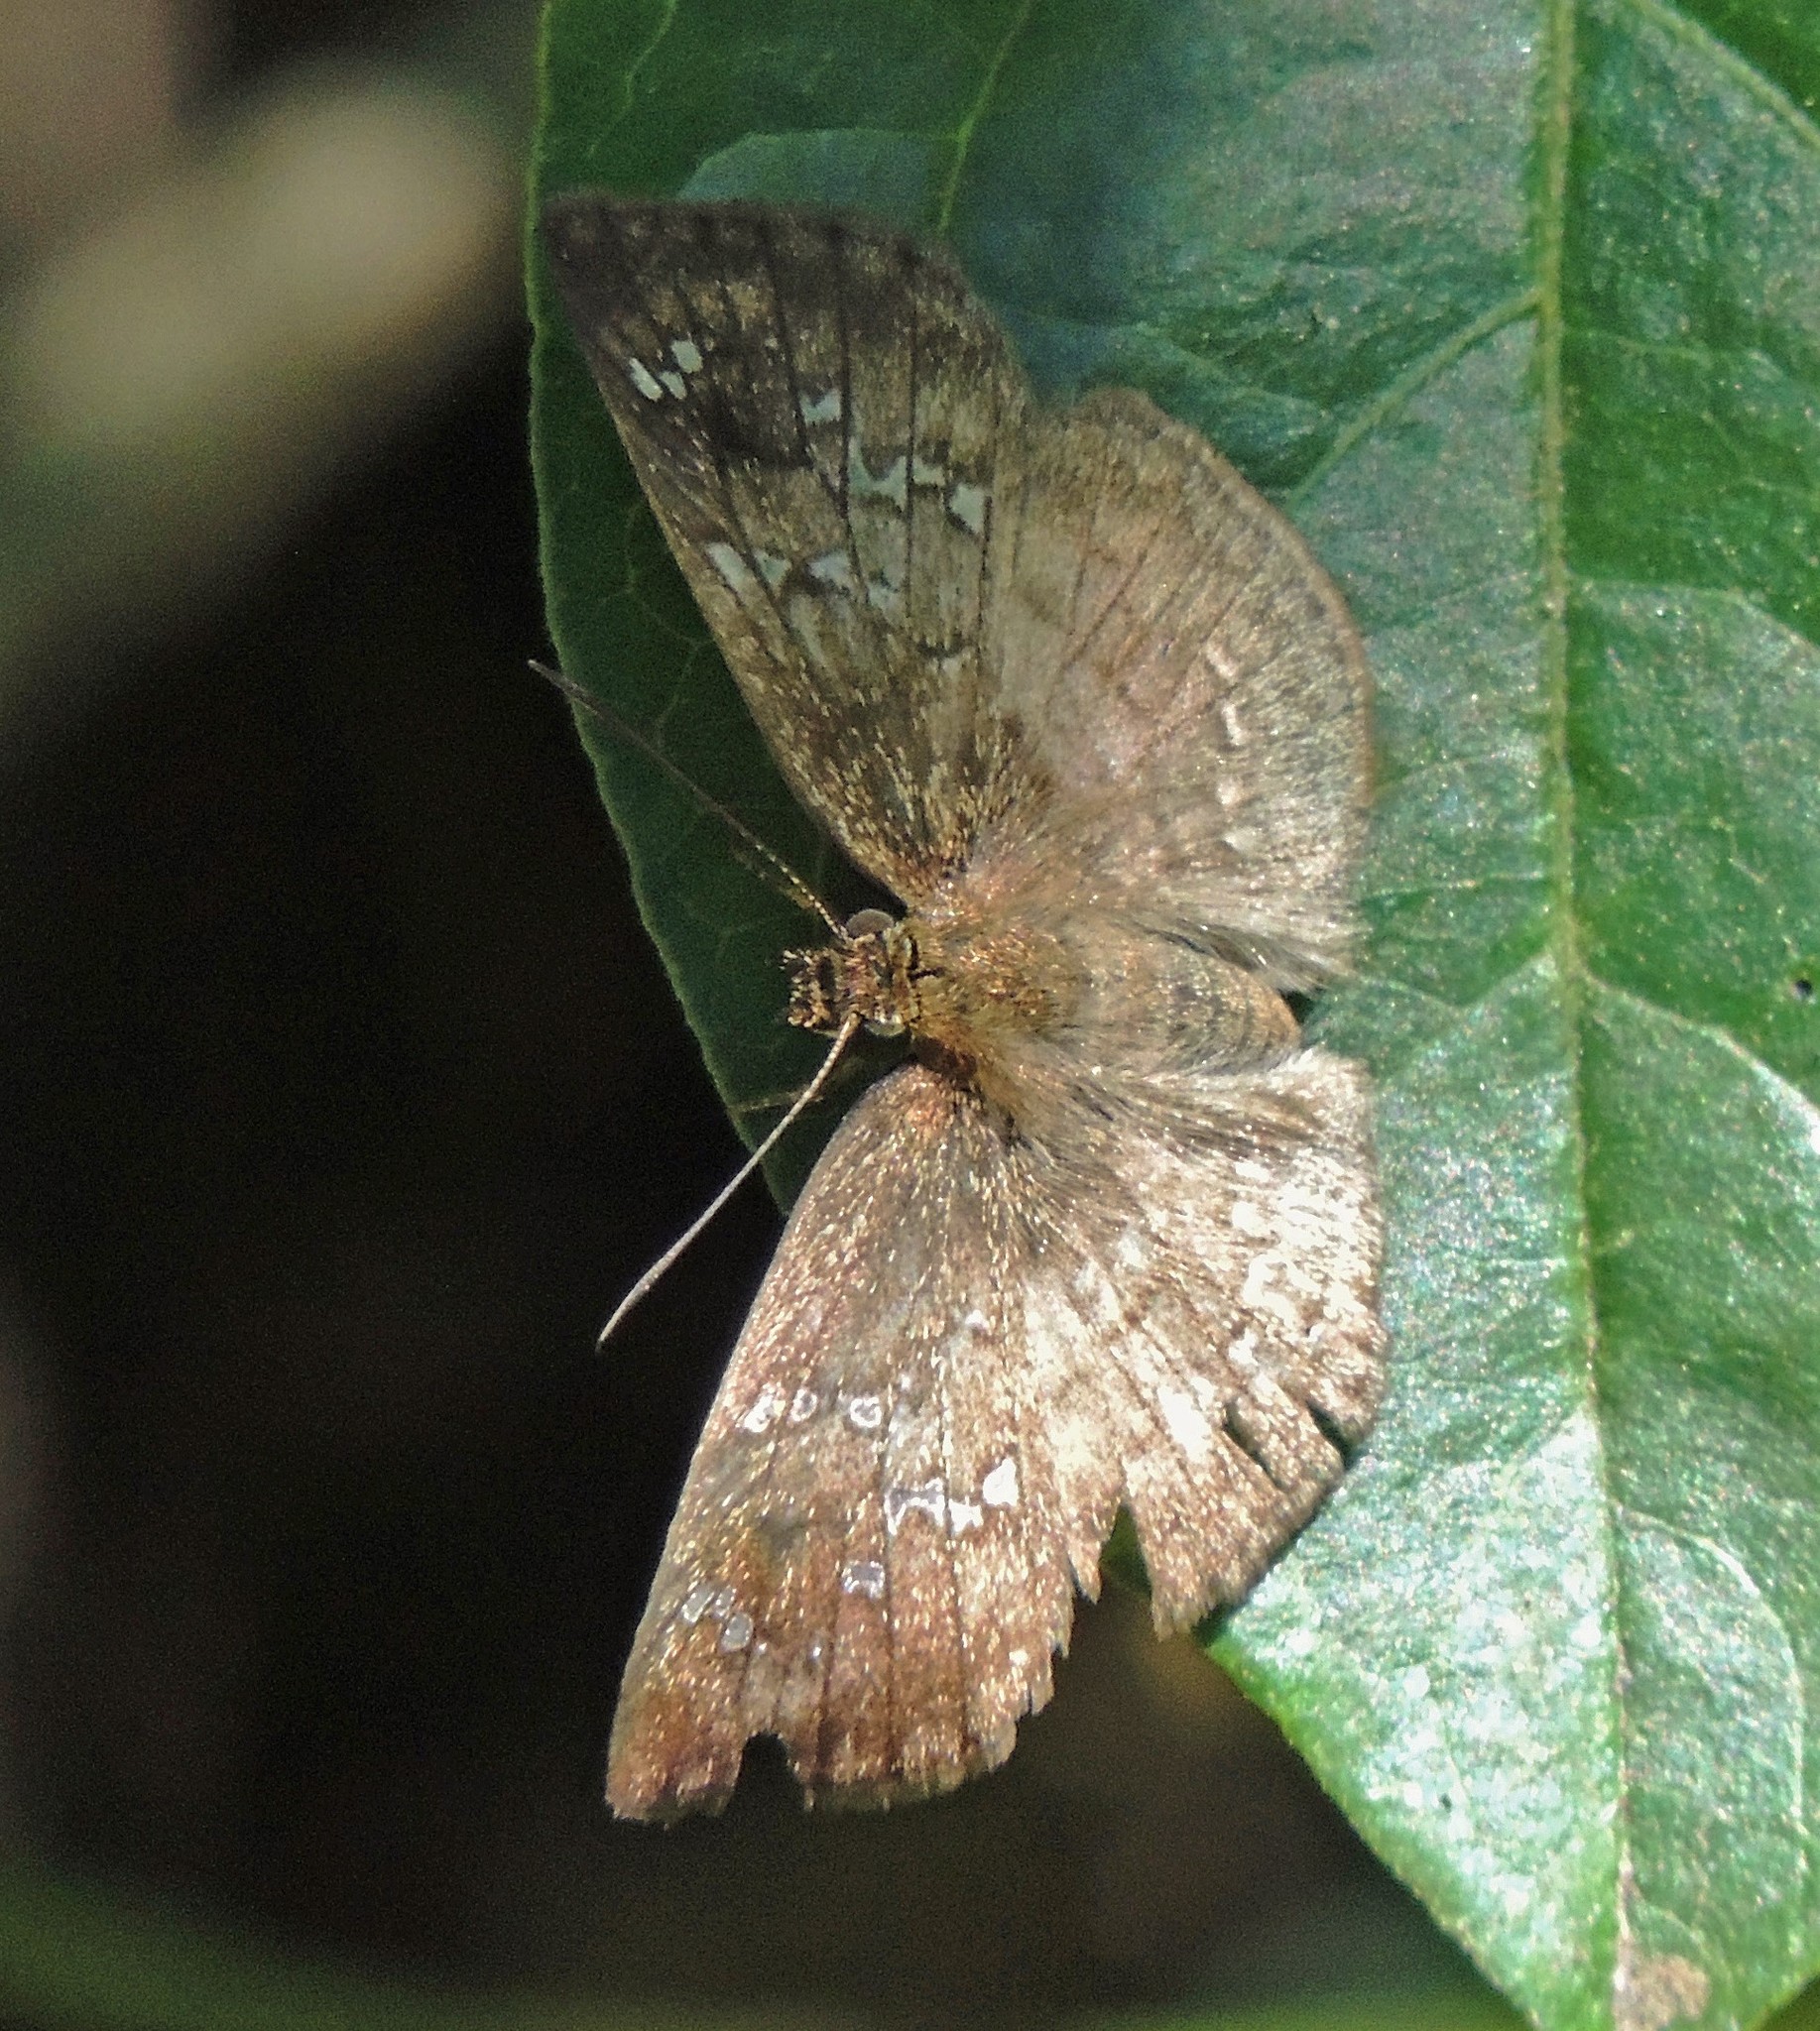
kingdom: Animalia
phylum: Arthropoda
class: Insecta
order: Lepidoptera
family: Hesperiidae
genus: Canesia
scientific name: Canesia
